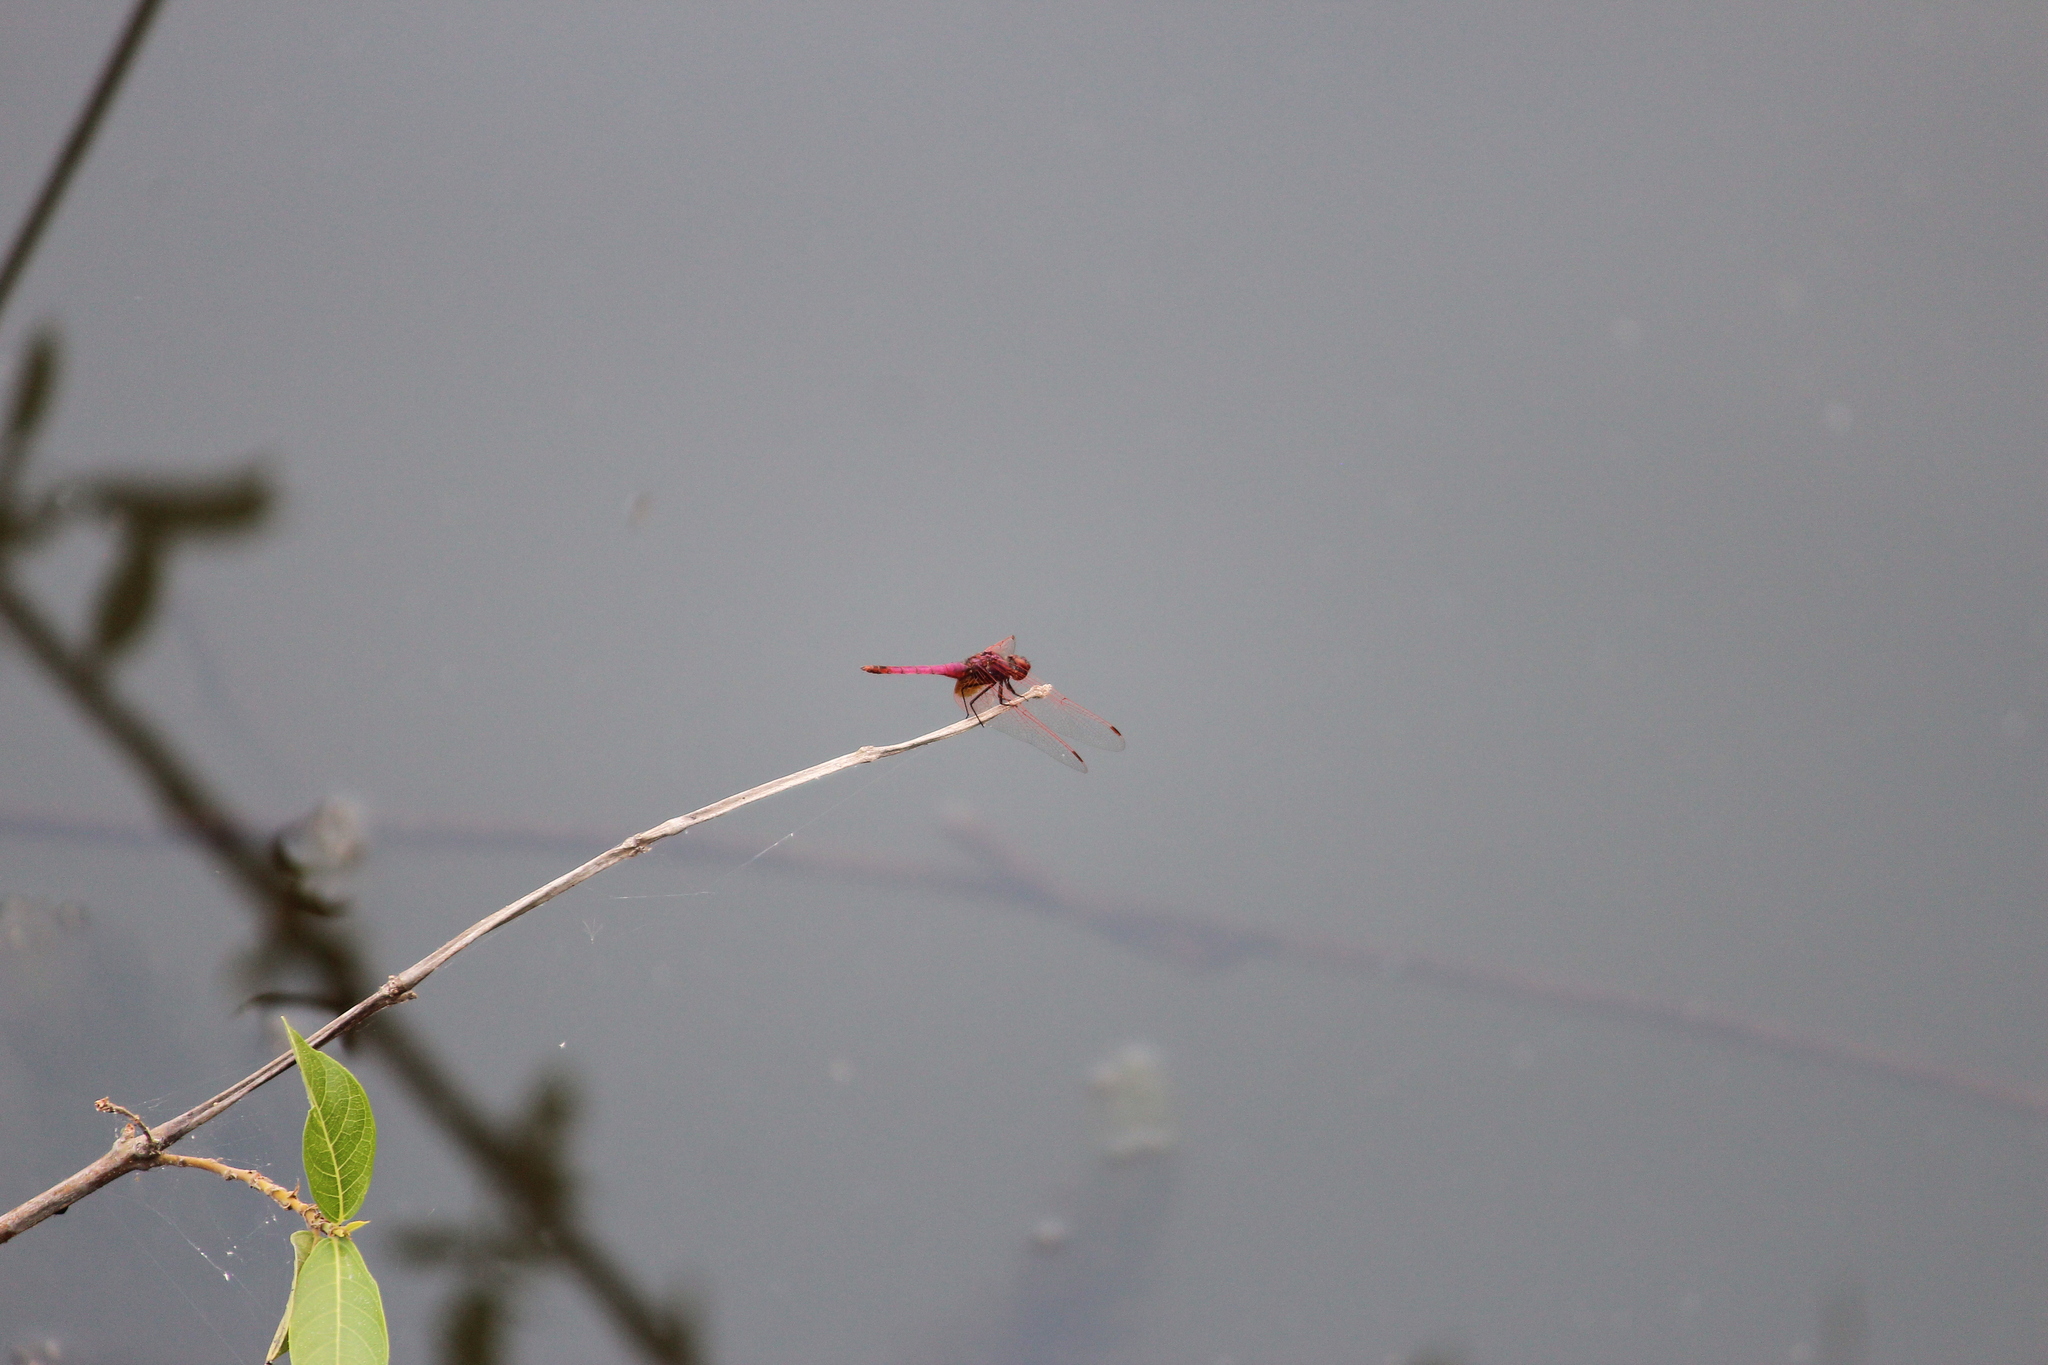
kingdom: Animalia
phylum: Arthropoda
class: Insecta
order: Odonata
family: Libellulidae
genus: Trithemis
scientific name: Trithemis annulata
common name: Violet dropwing
